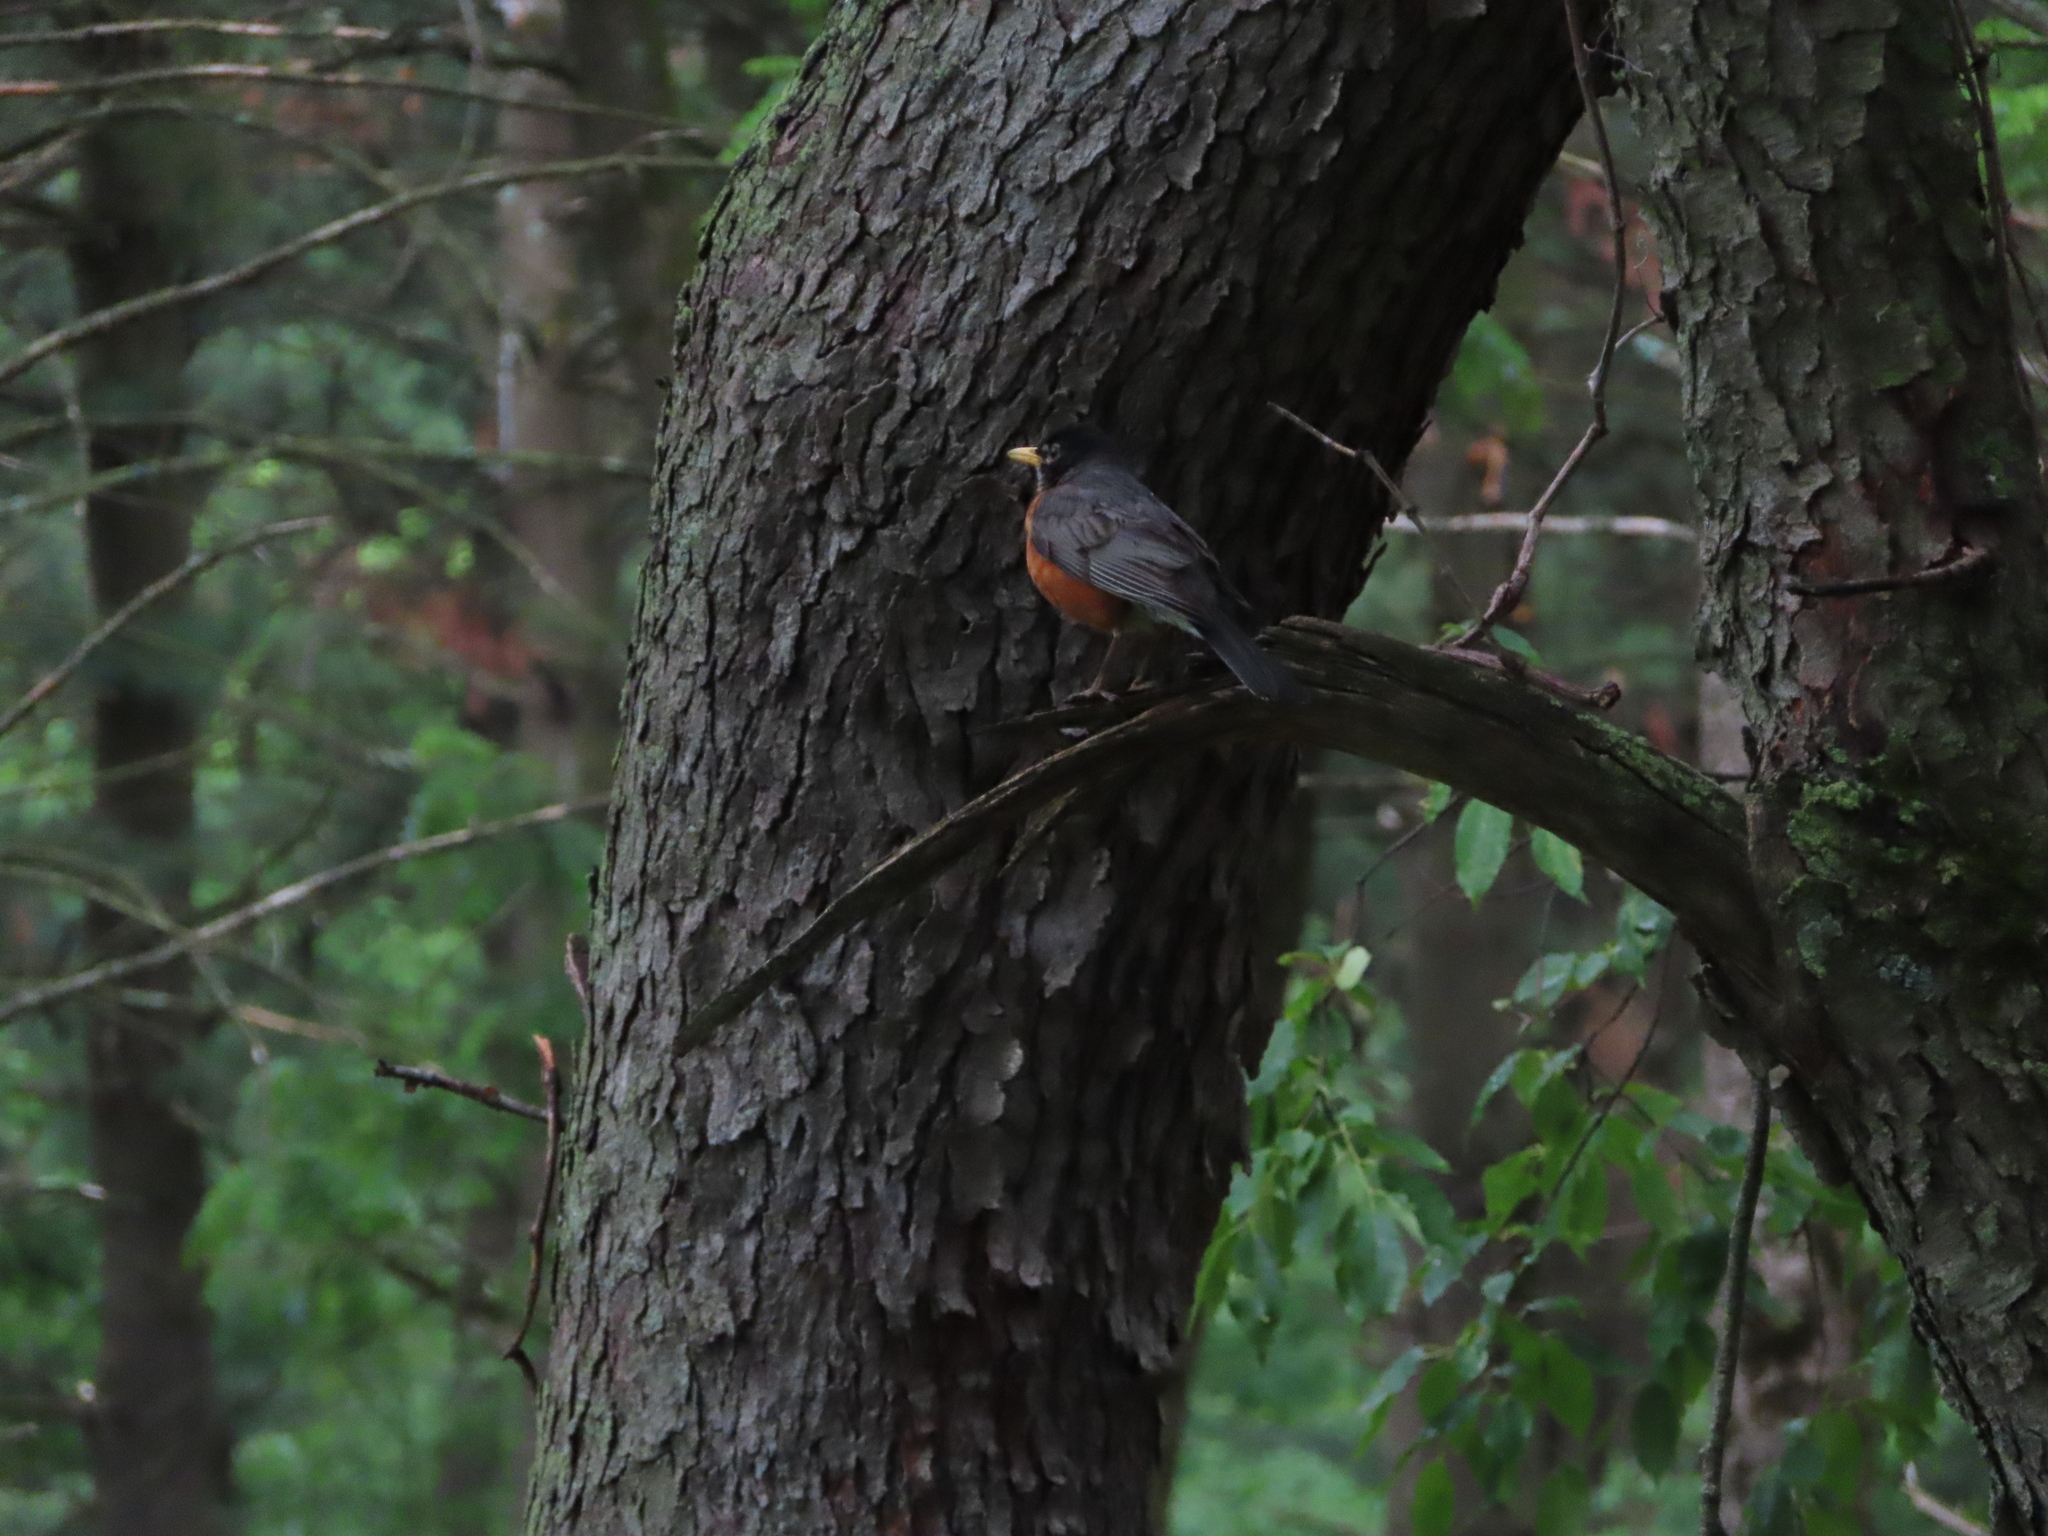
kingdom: Animalia
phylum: Chordata
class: Aves
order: Passeriformes
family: Turdidae
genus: Turdus
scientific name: Turdus migratorius
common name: American robin
